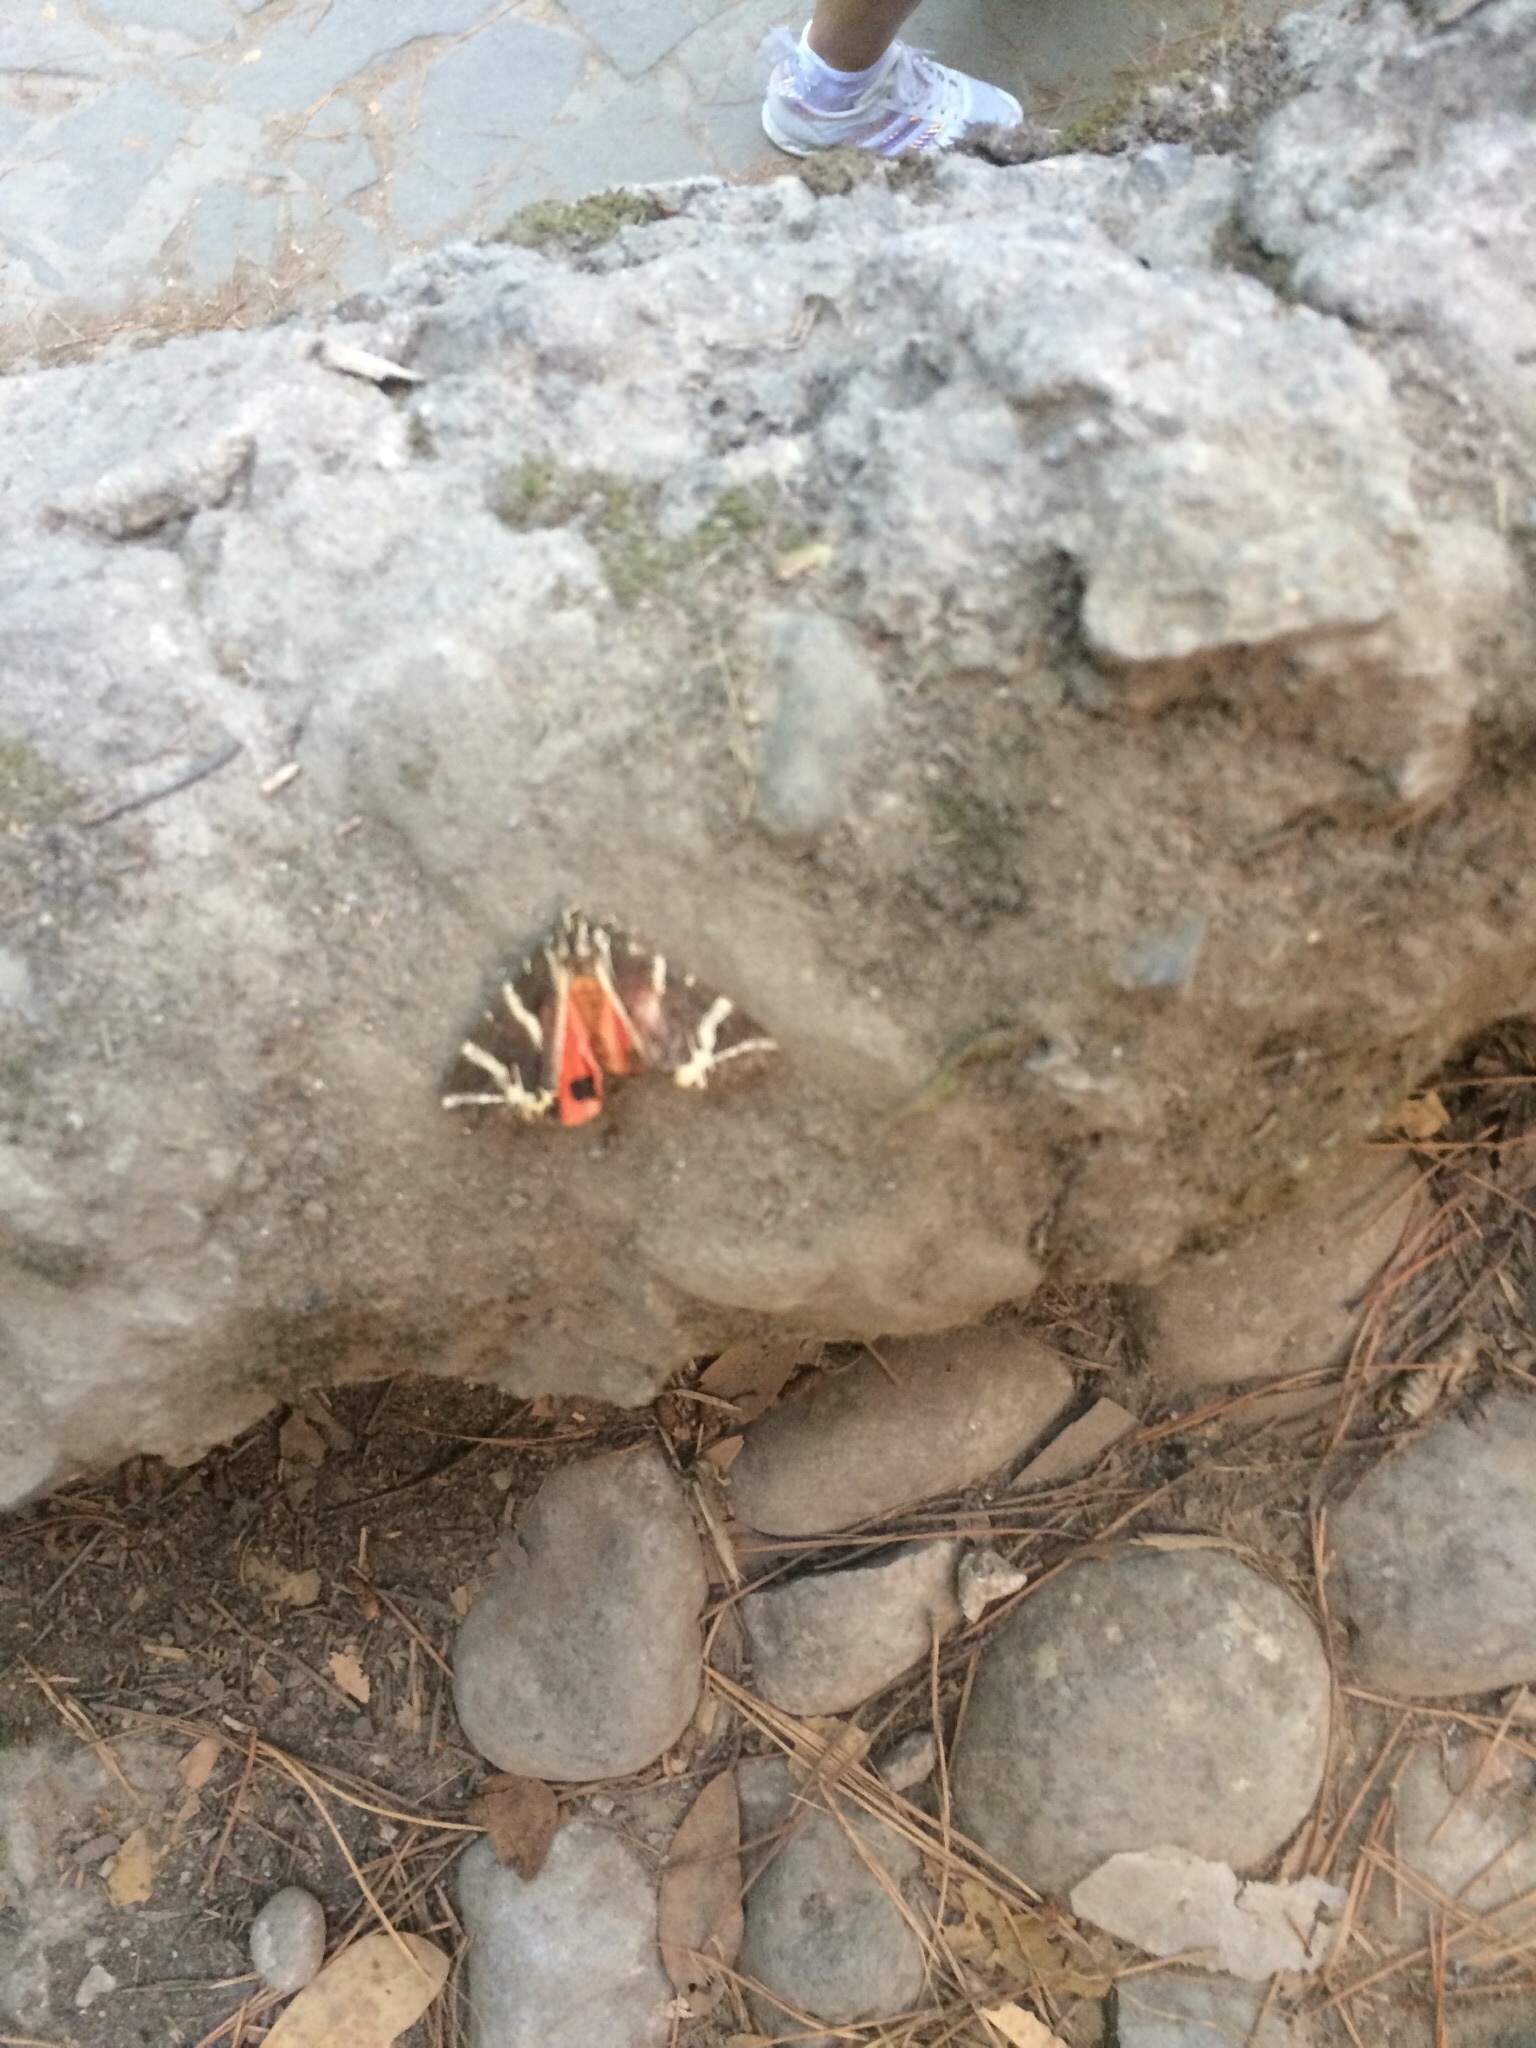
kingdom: Animalia
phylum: Arthropoda
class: Insecta
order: Lepidoptera
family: Erebidae
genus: Euplagia
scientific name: Euplagia quadripunctaria
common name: Jersey tiger
